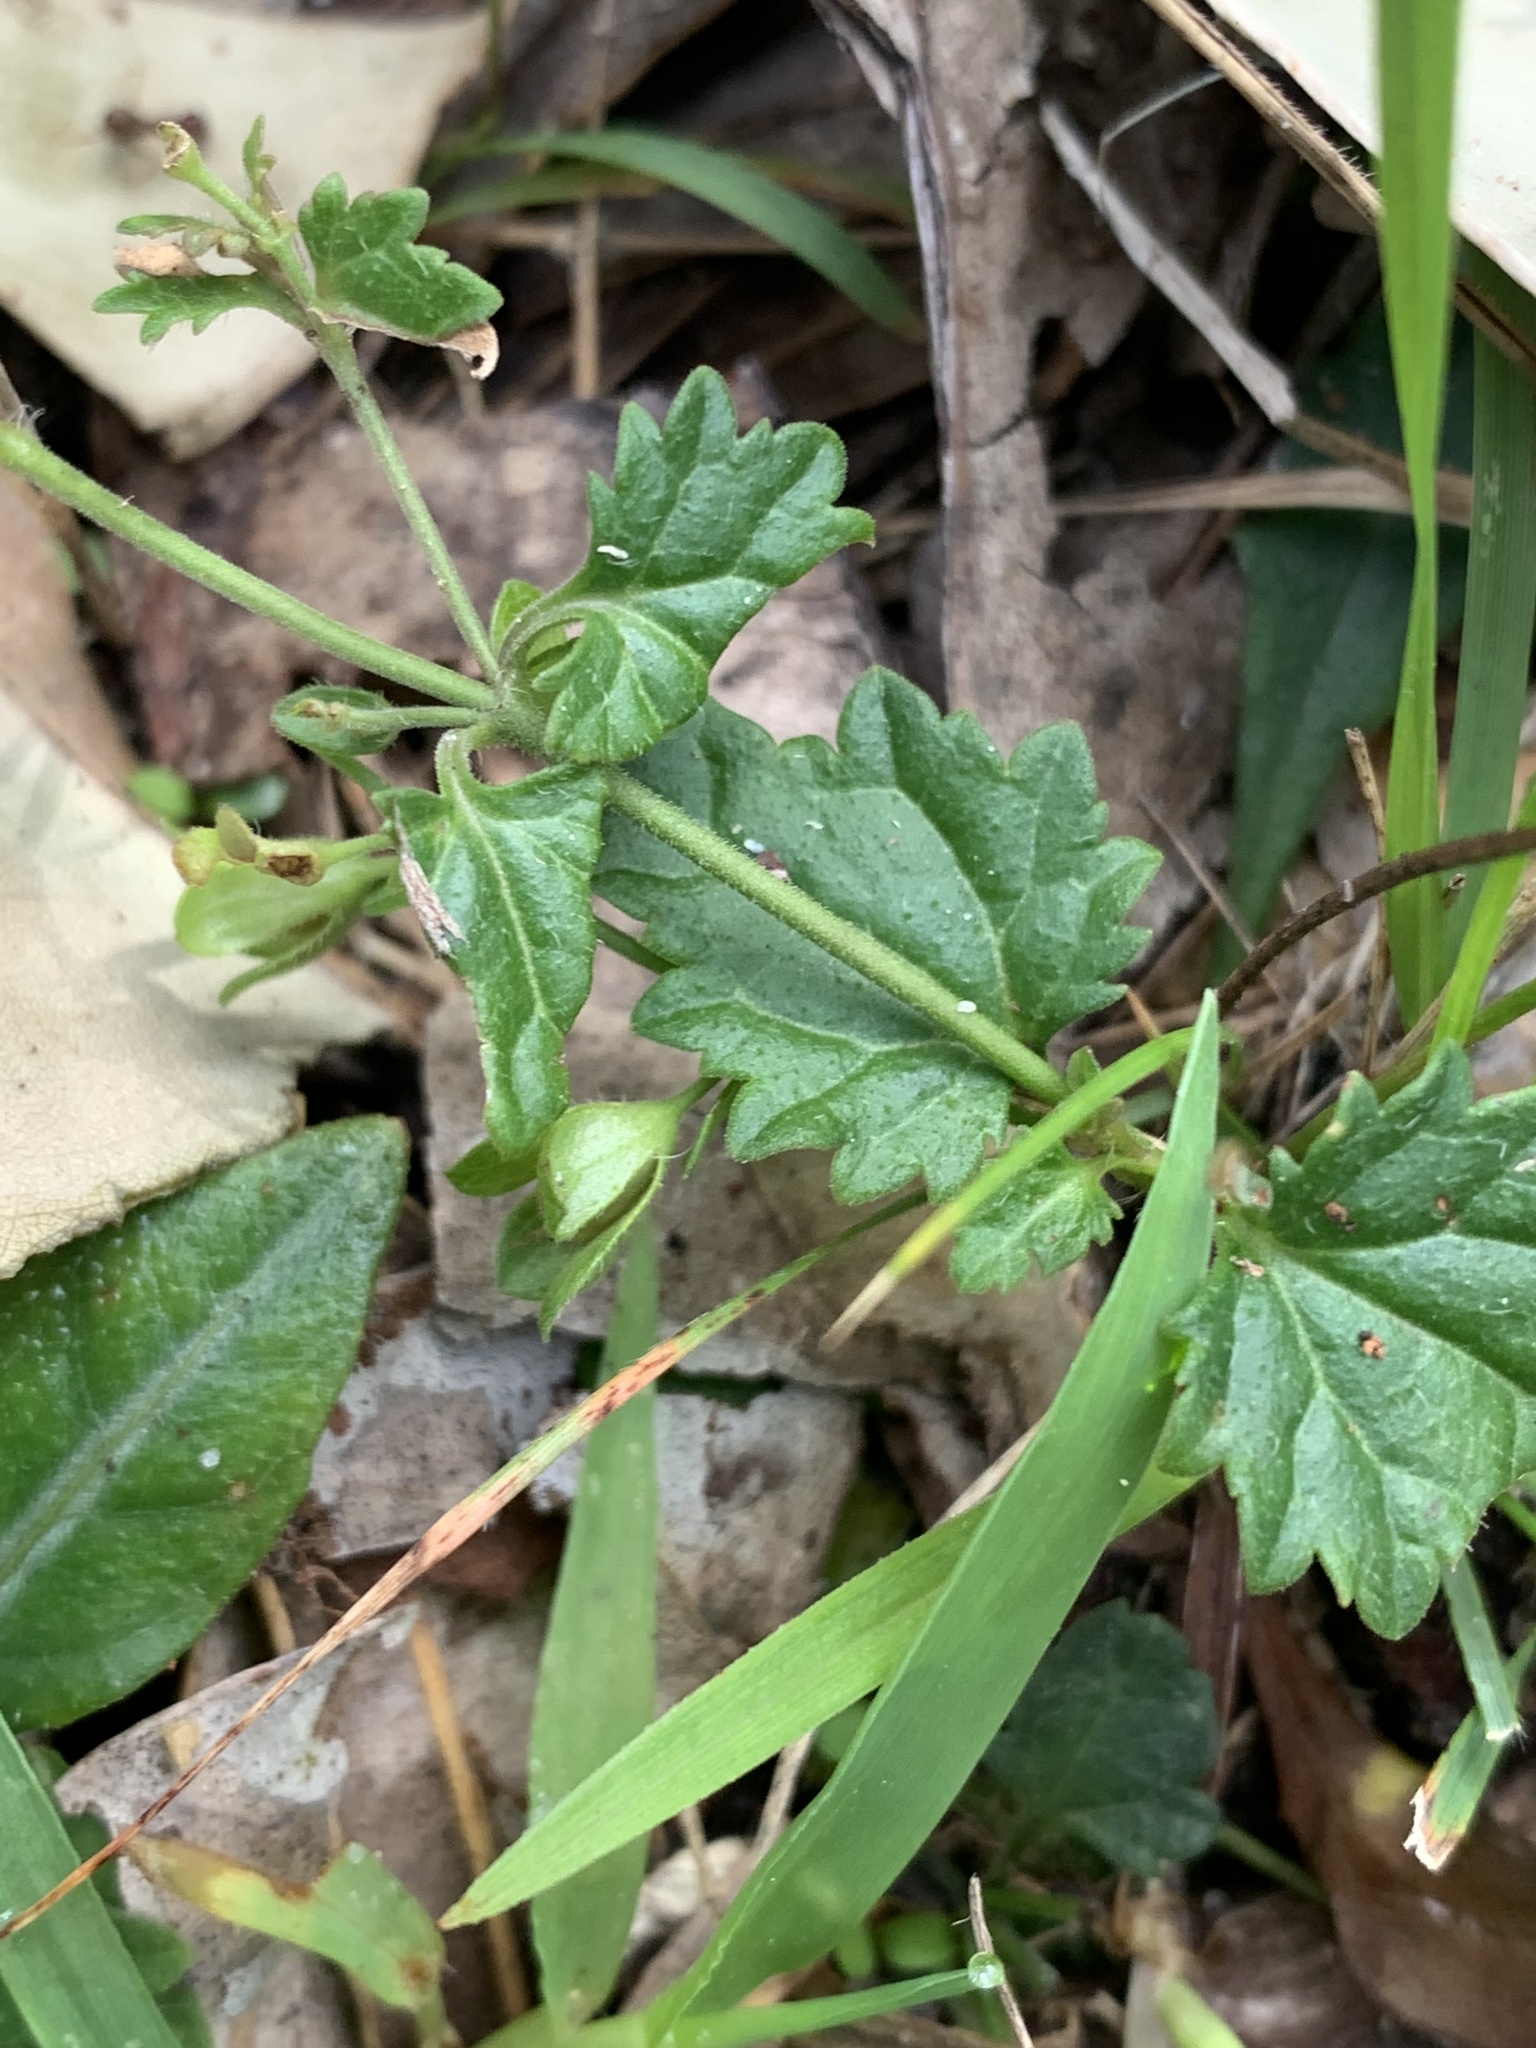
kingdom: Plantae
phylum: Tracheophyta
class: Magnoliopsida
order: Lamiales
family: Plantaginaceae
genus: Veronica
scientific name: Veronica plebeia
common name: Speedwell
